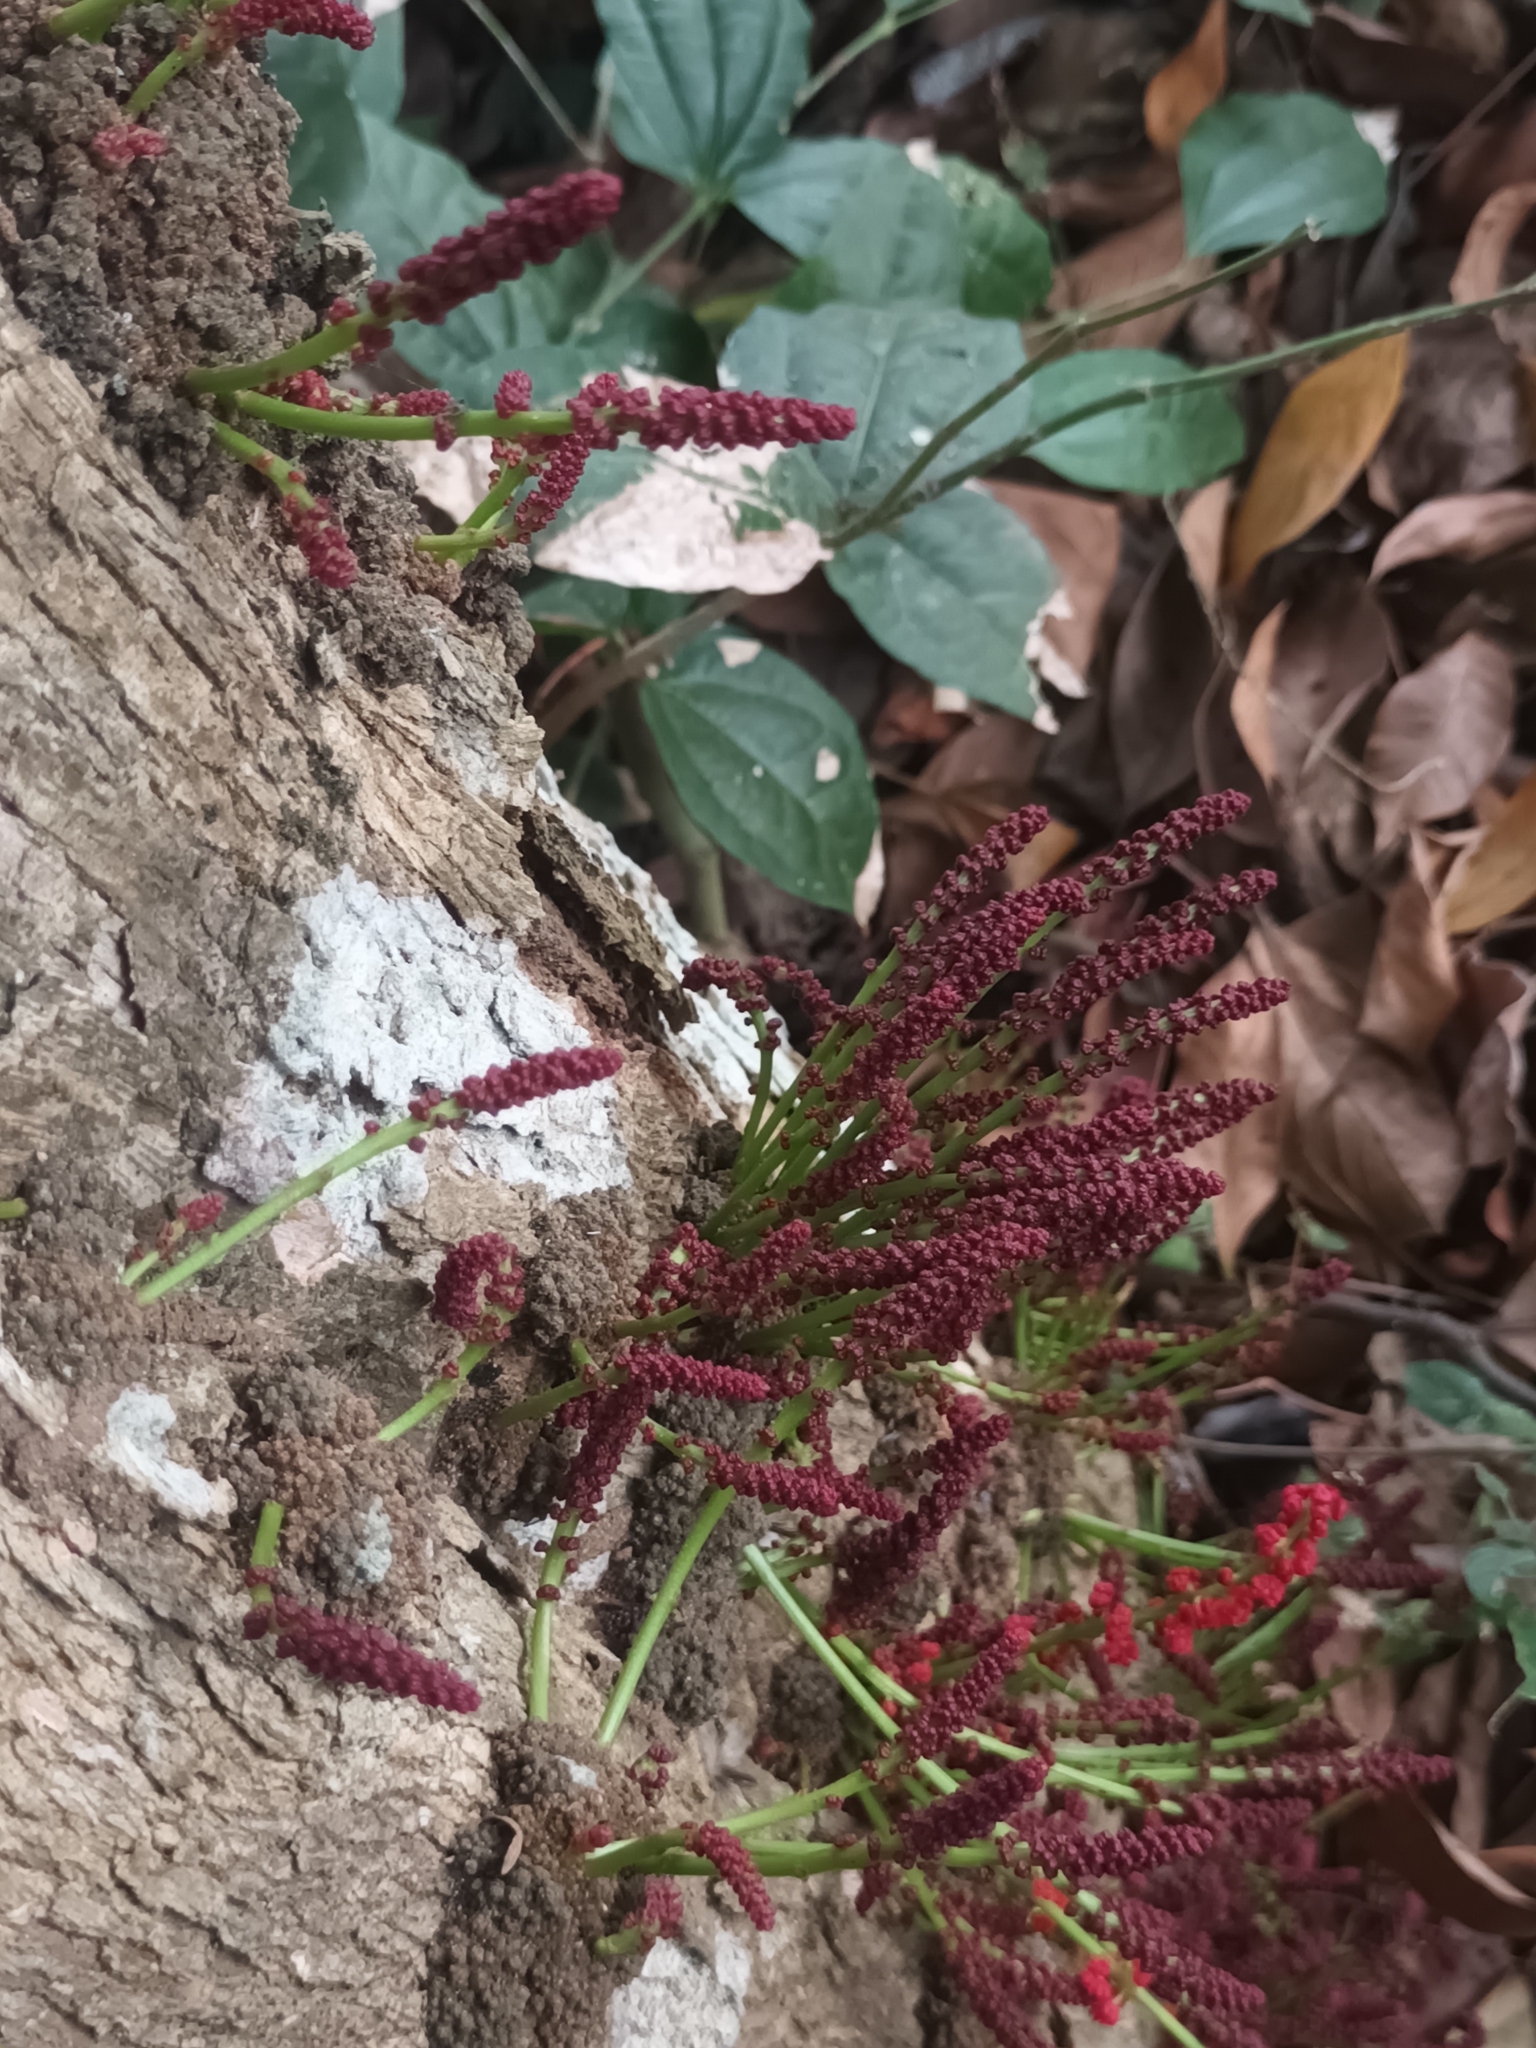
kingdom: Plantae
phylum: Tracheophyta
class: Magnoliopsida
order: Malpighiales
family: Phyllanthaceae
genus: Baccaurea
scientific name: Baccaurea courtallensis
